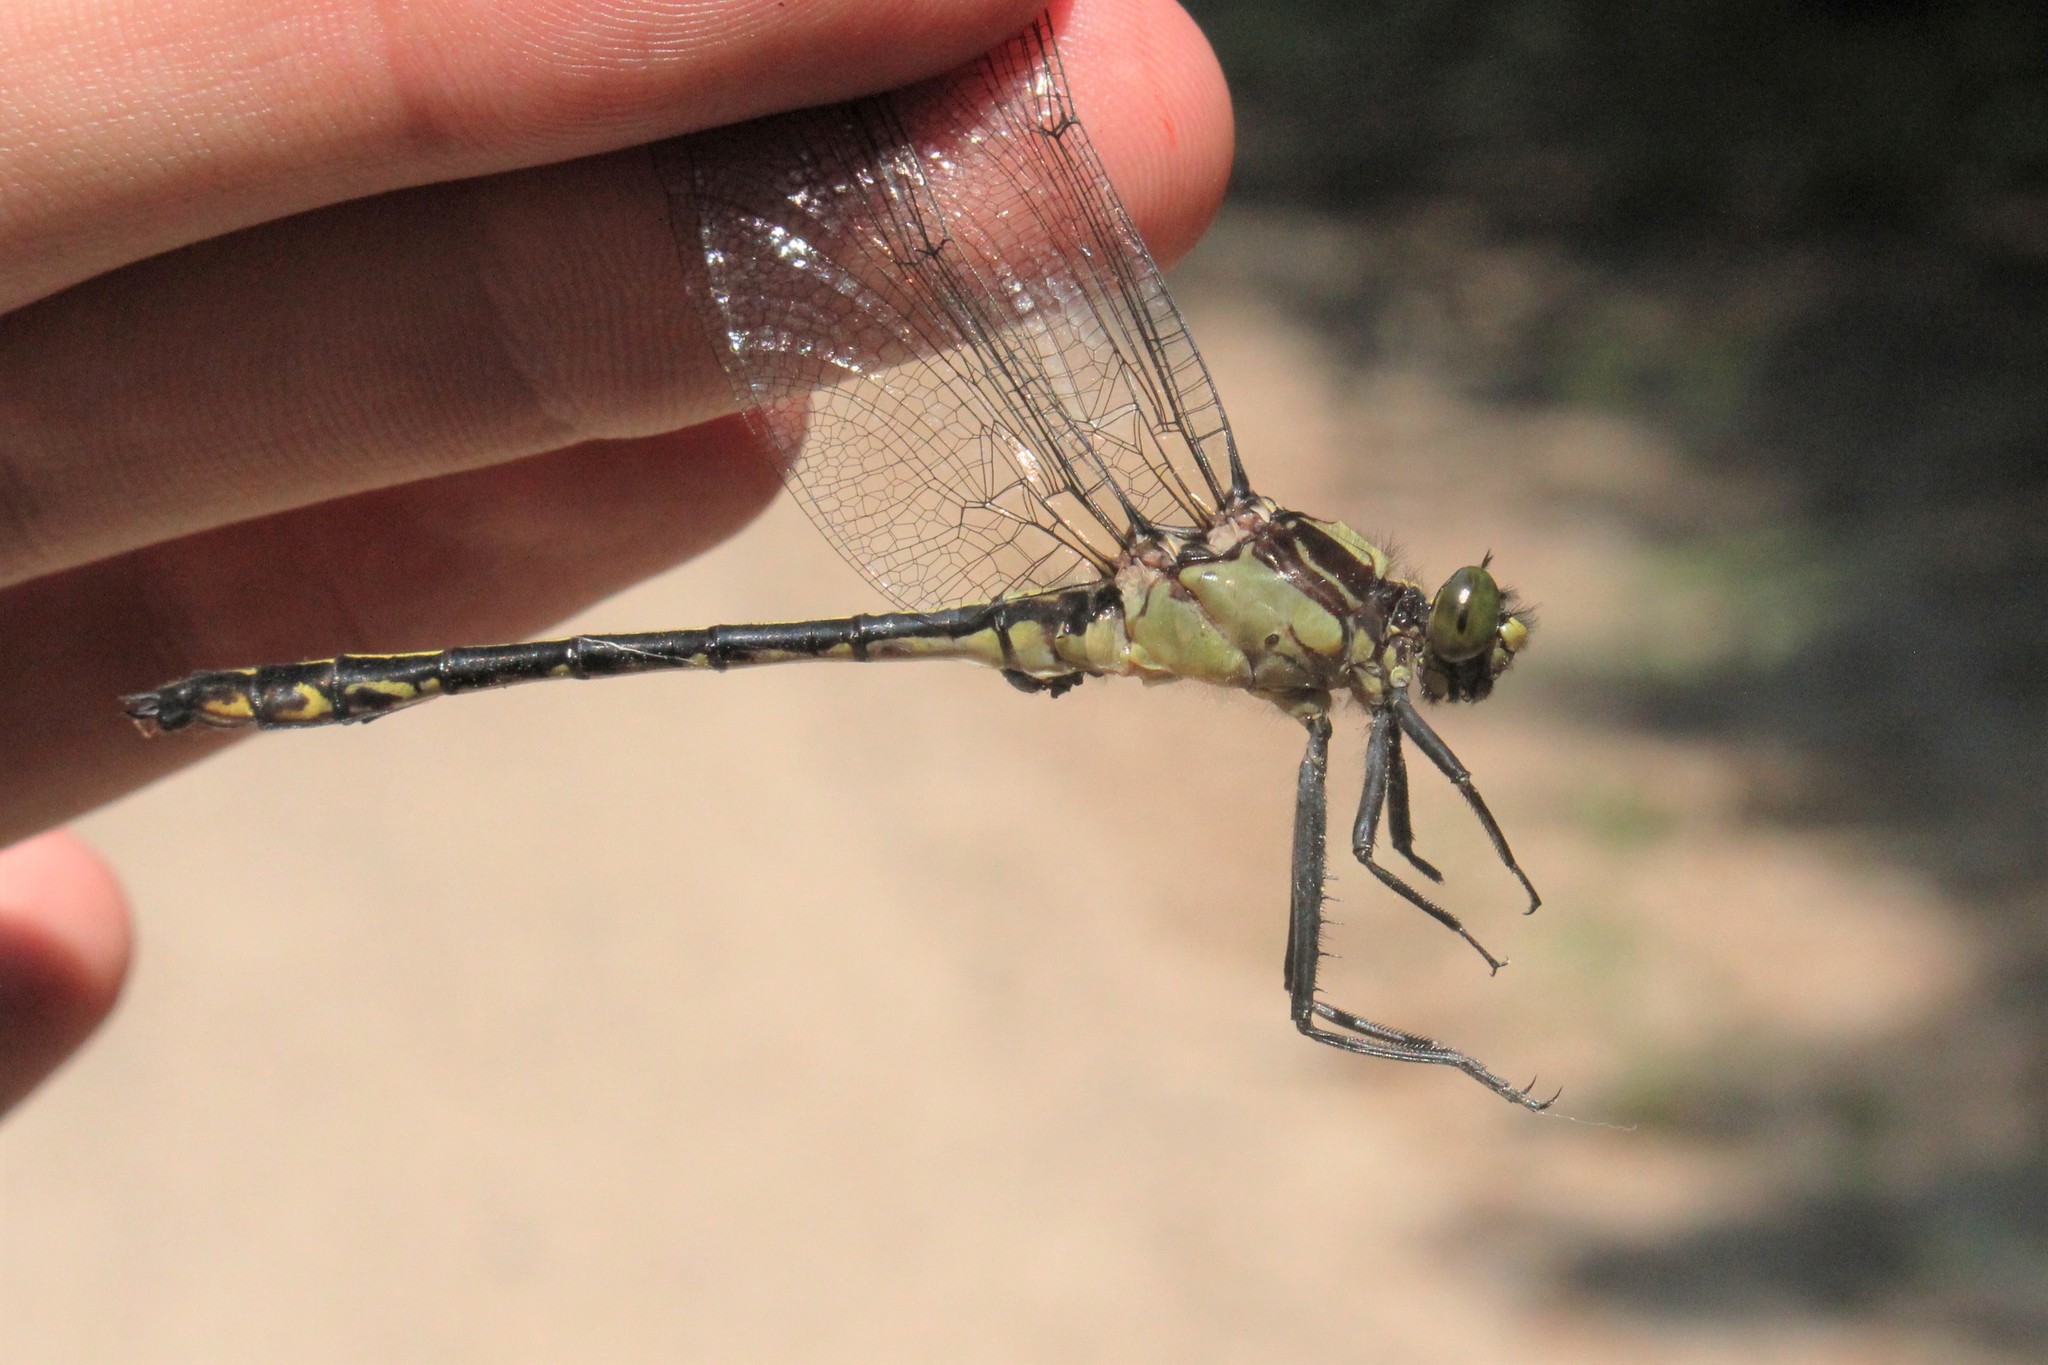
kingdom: Animalia
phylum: Arthropoda
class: Insecta
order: Odonata
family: Gomphidae
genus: Dromogomphus
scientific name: Dromogomphus spinosus
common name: Black-shouldered spinyleg
